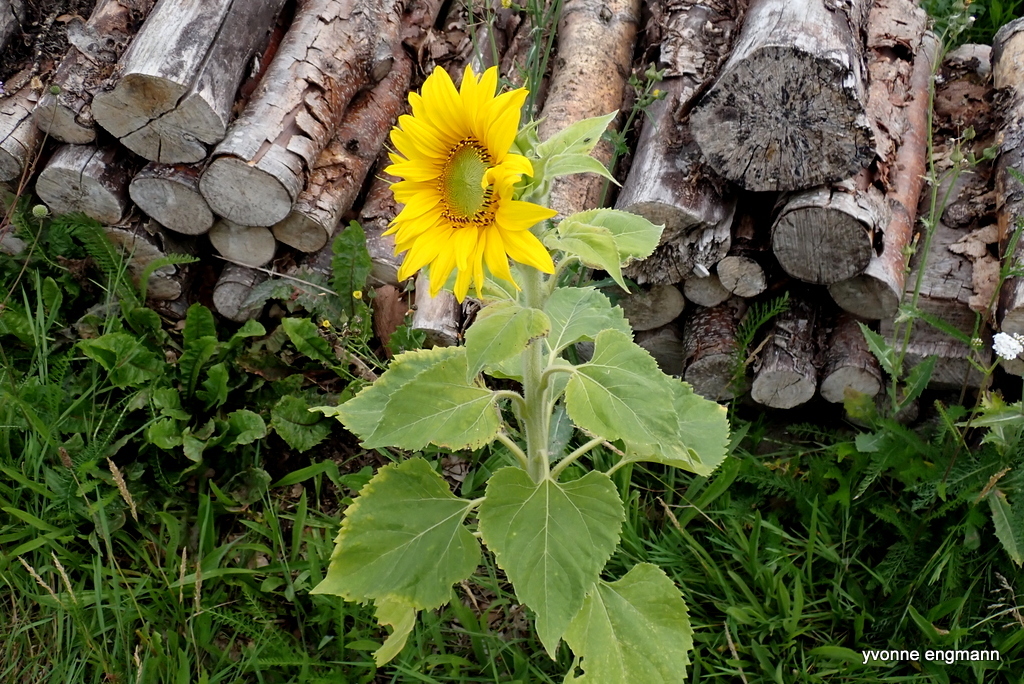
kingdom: Plantae
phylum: Tracheophyta
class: Magnoliopsida
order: Asterales
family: Asteraceae
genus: Helianthus
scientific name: Helianthus annuus
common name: Sunflower
